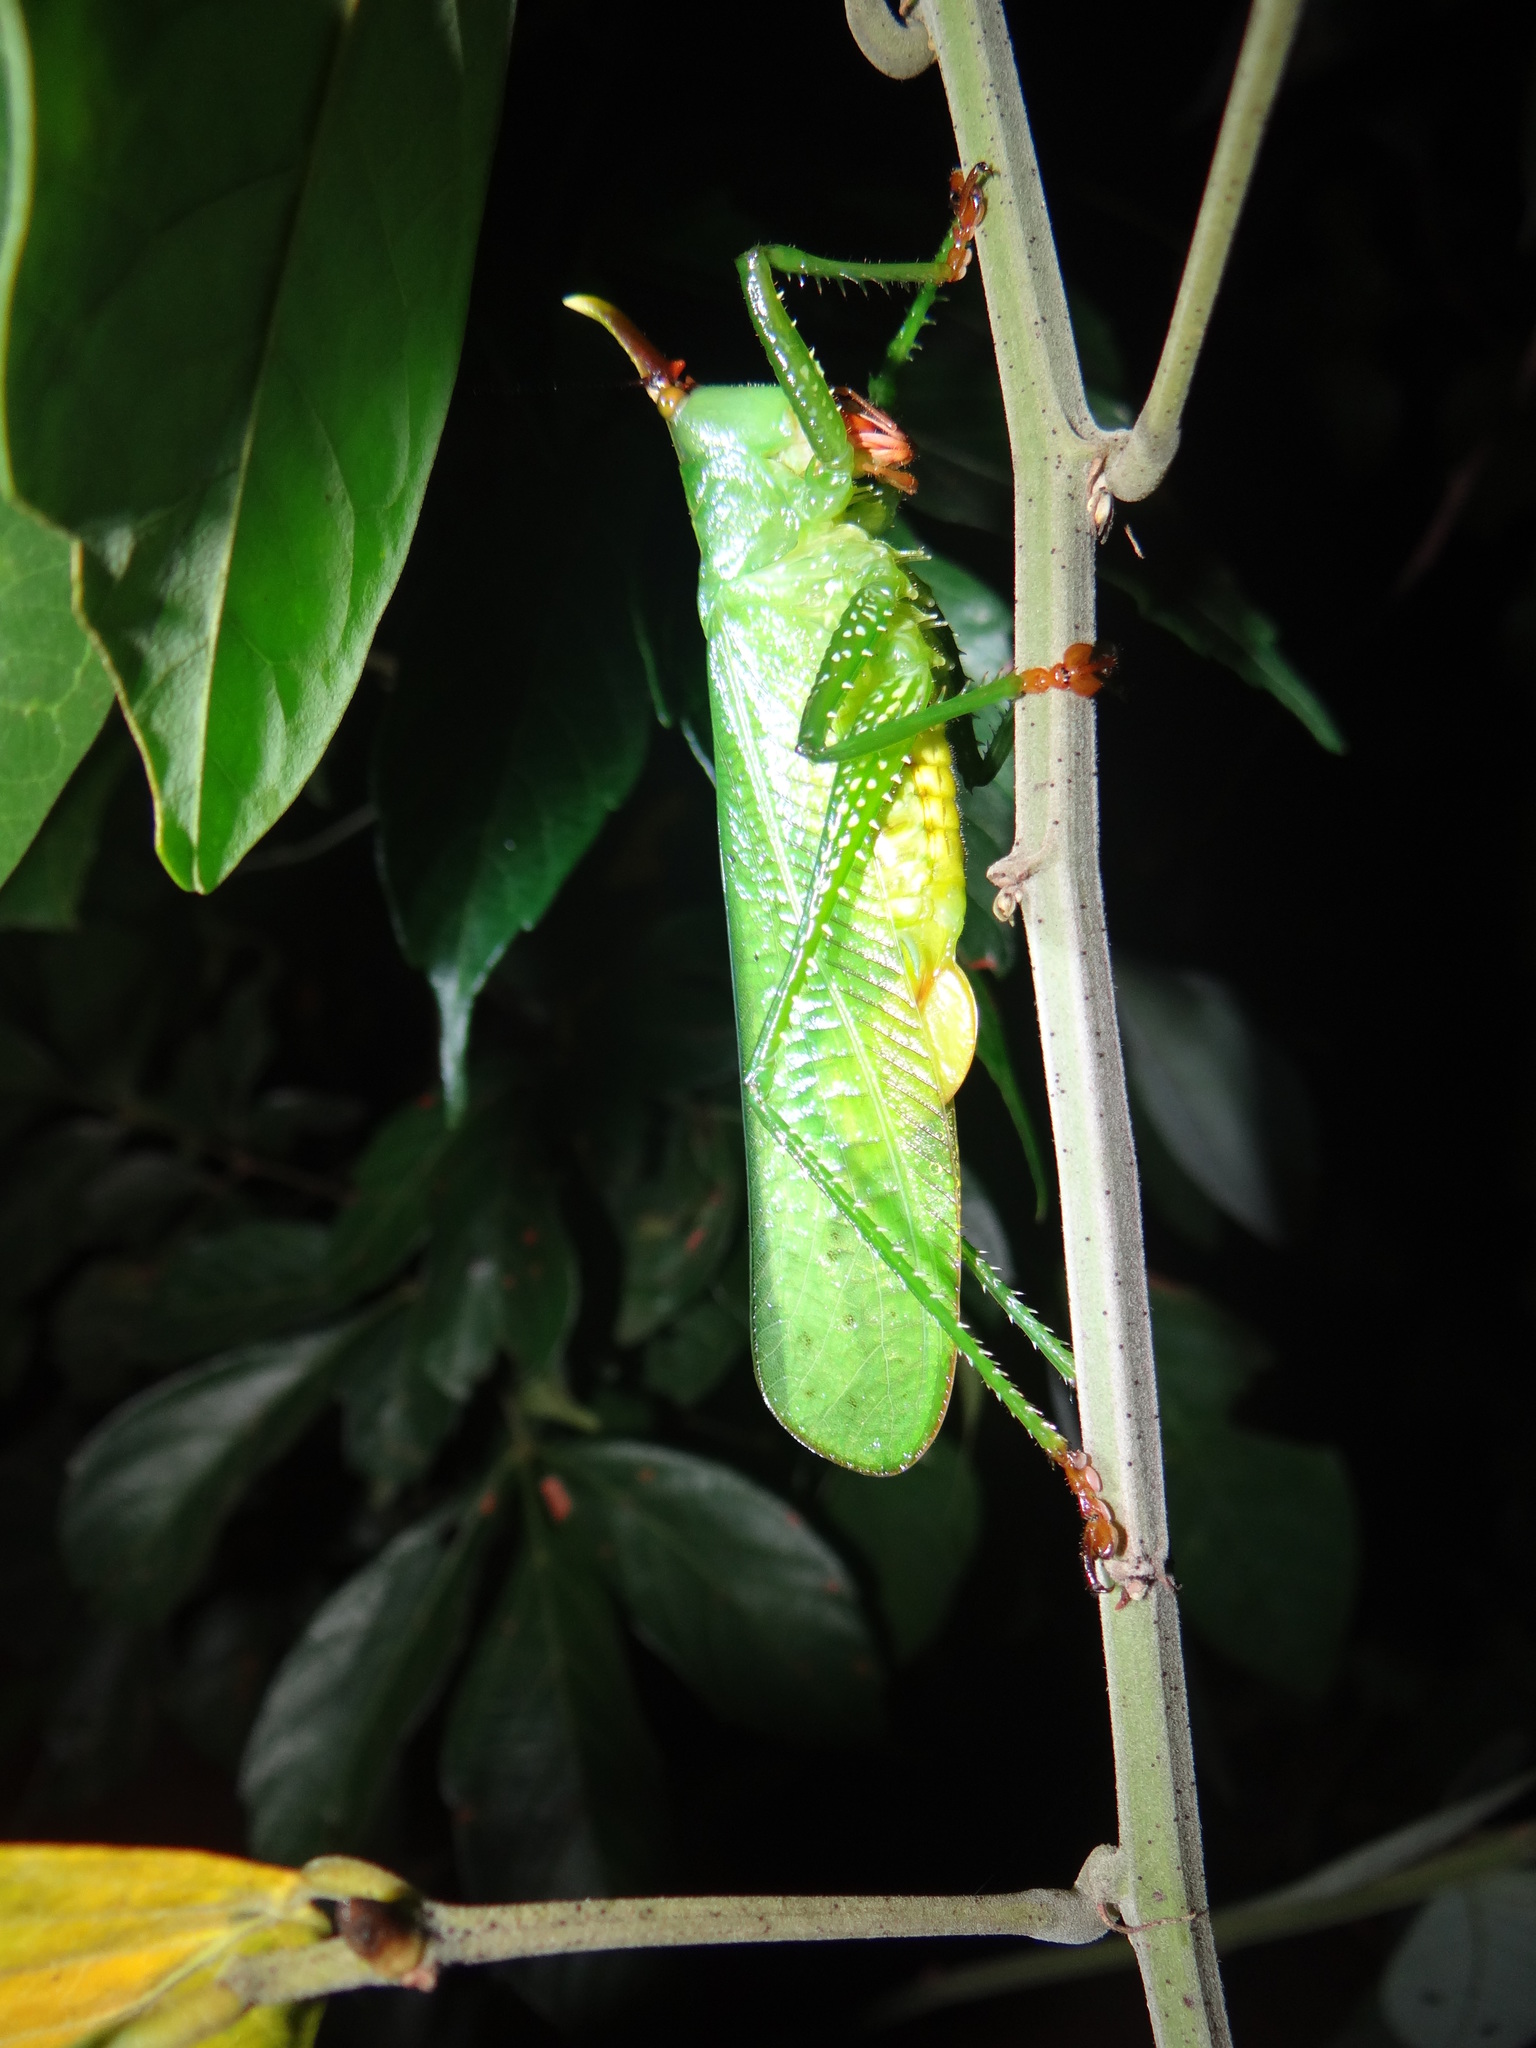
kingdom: Animalia
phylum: Arthropoda
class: Insecta
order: Orthoptera
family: Tettigoniidae
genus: Oxyprora
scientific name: Oxyprora curvirostris
